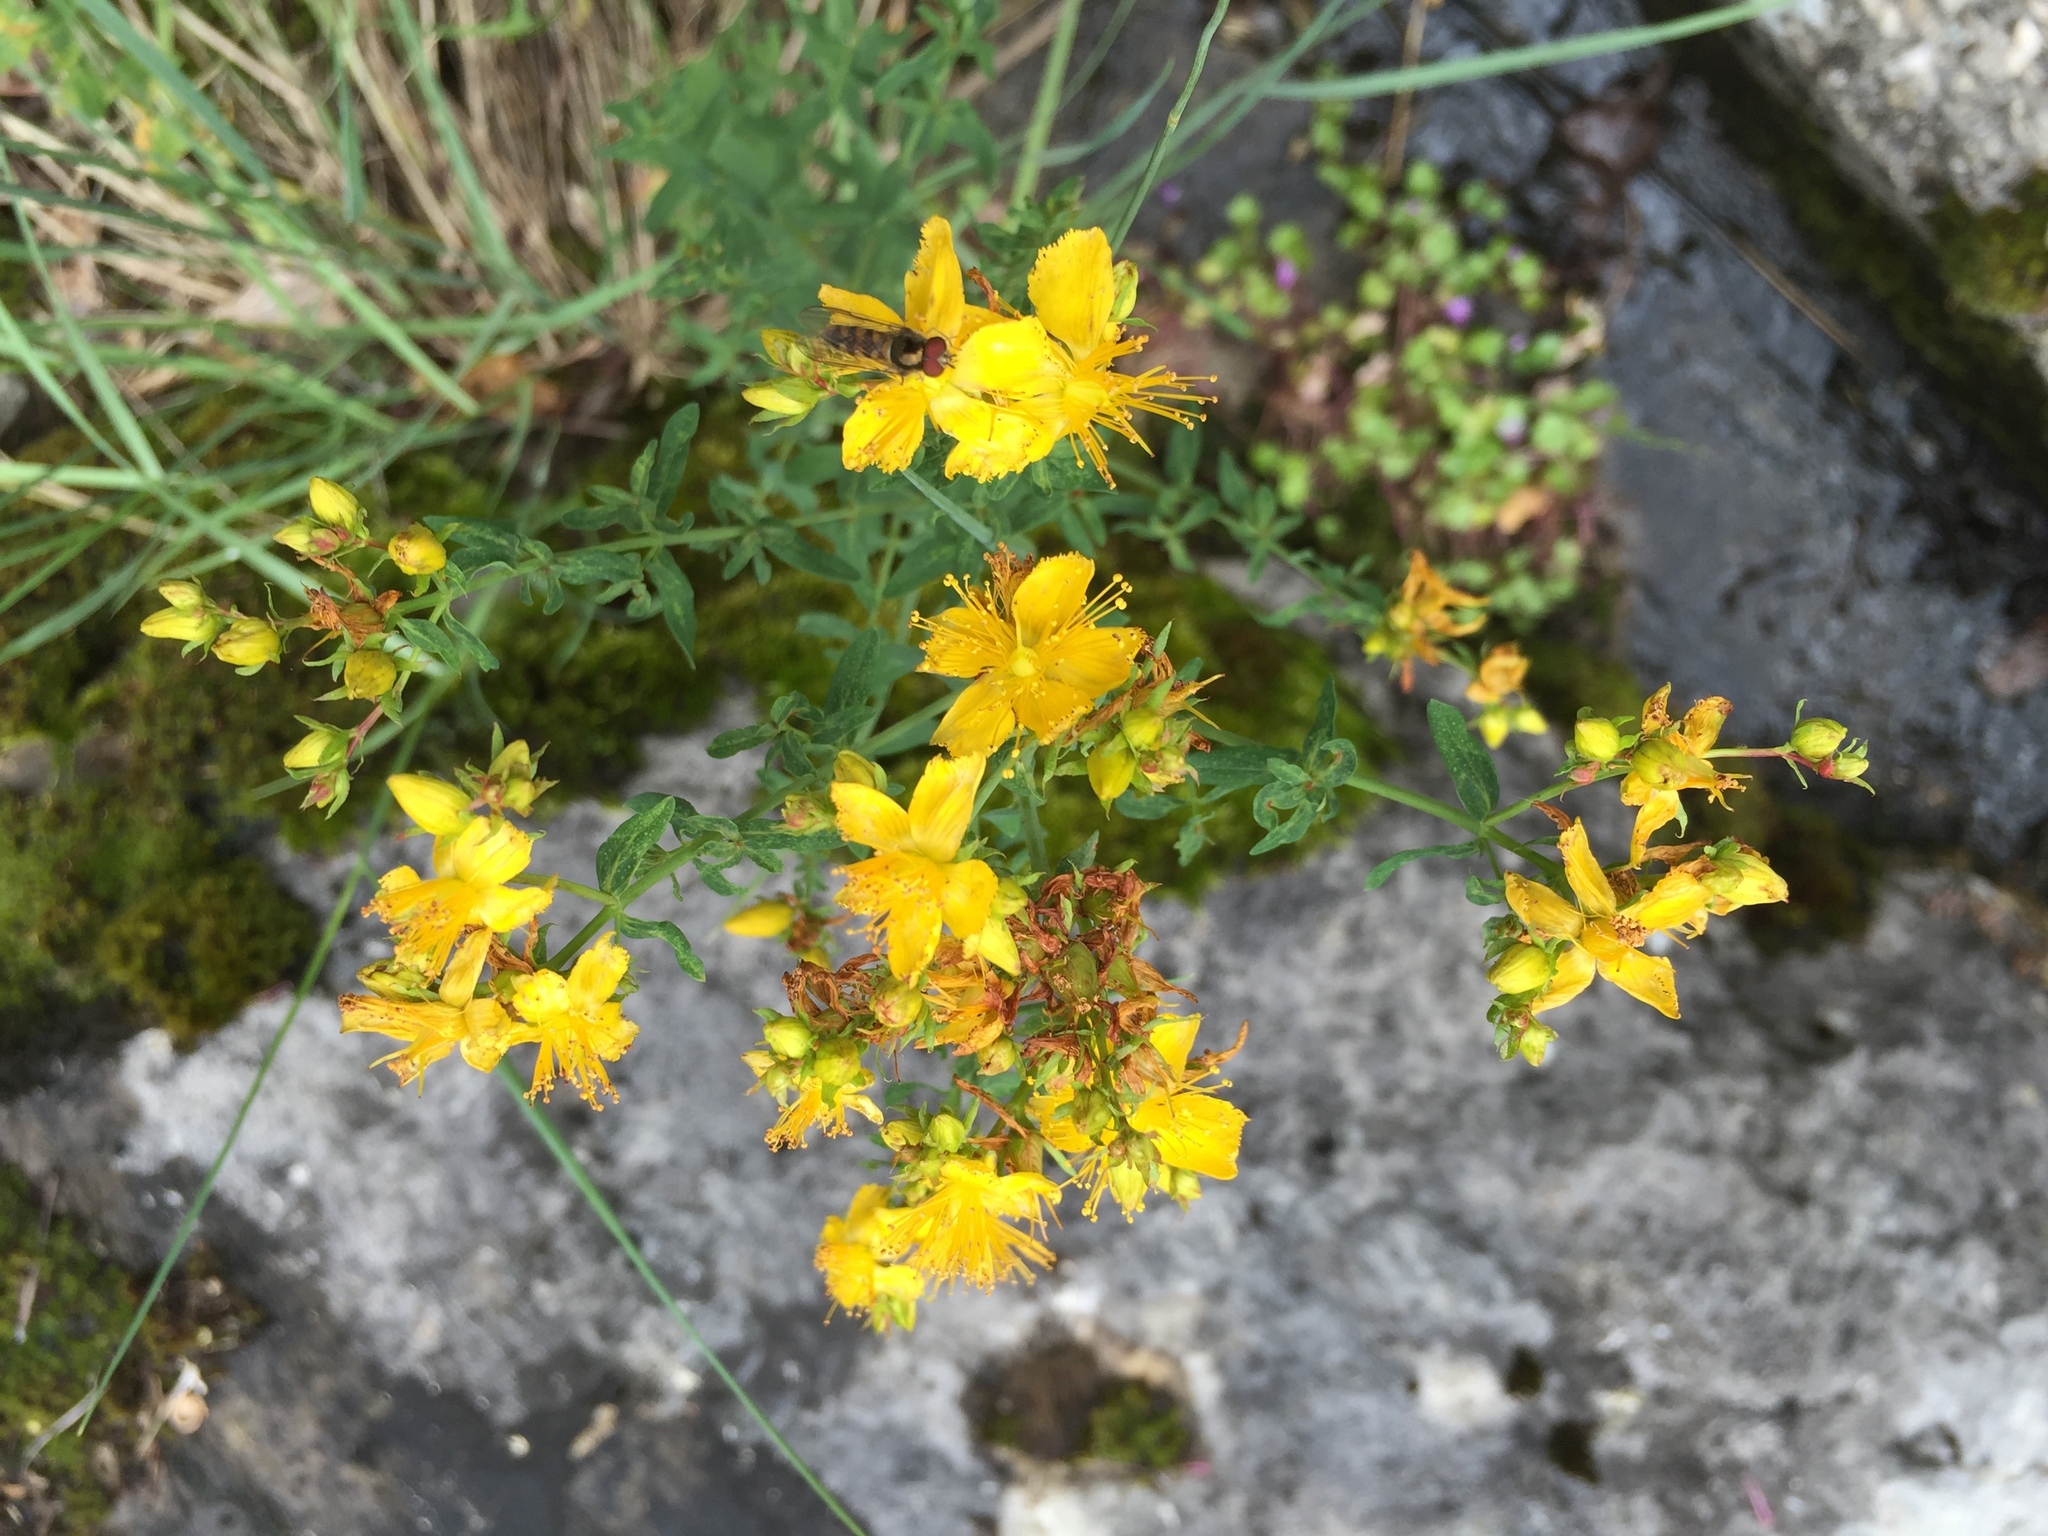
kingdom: Plantae
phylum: Tracheophyta
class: Magnoliopsida
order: Malpighiales
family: Hypericaceae
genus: Hypericum
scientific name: Hypericum perforatum
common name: Common st. johnswort
